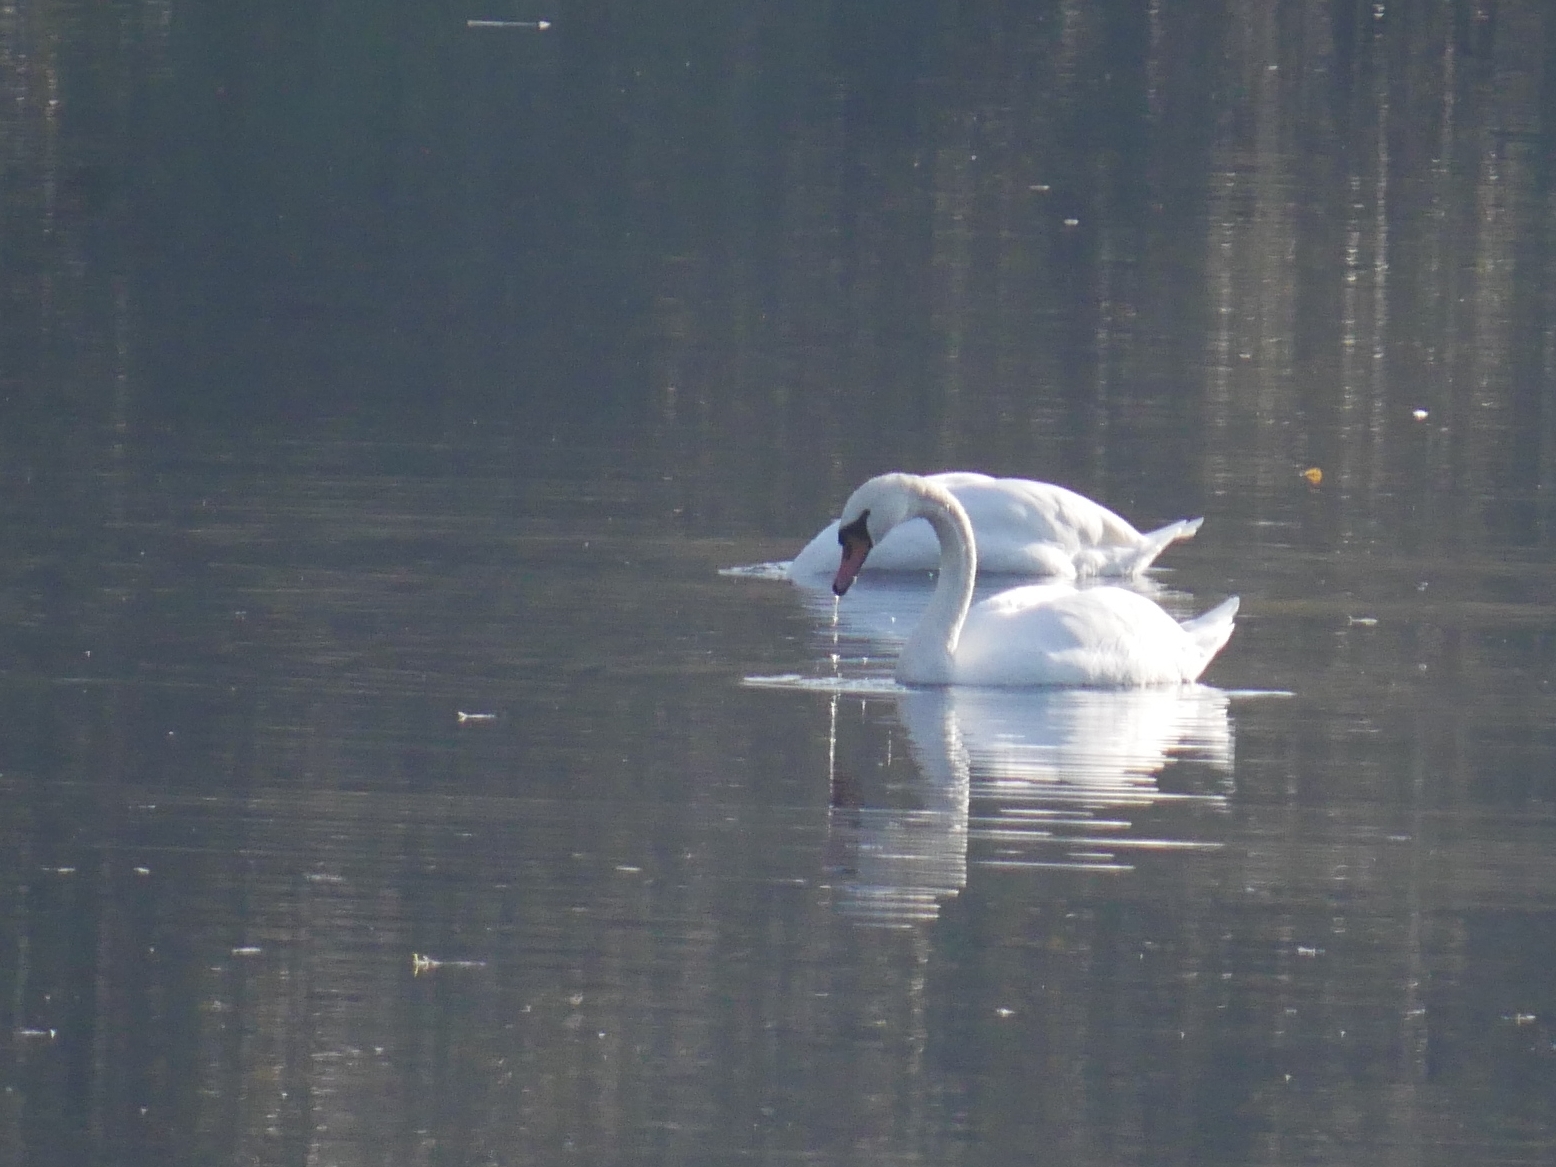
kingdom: Animalia
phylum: Chordata
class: Aves
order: Anseriformes
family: Anatidae
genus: Cygnus
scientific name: Cygnus olor
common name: Mute swan
